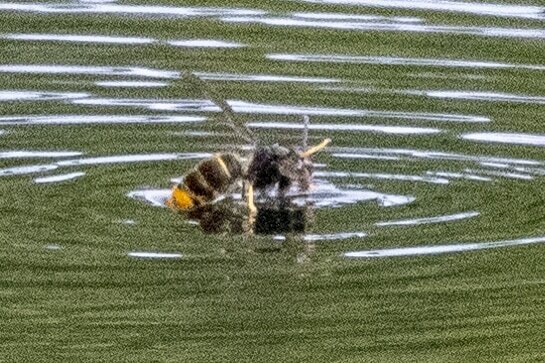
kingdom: Animalia
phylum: Arthropoda
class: Insecta
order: Hymenoptera
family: Vespidae
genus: Vespa
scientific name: Vespa velutina
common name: Asian hornet
